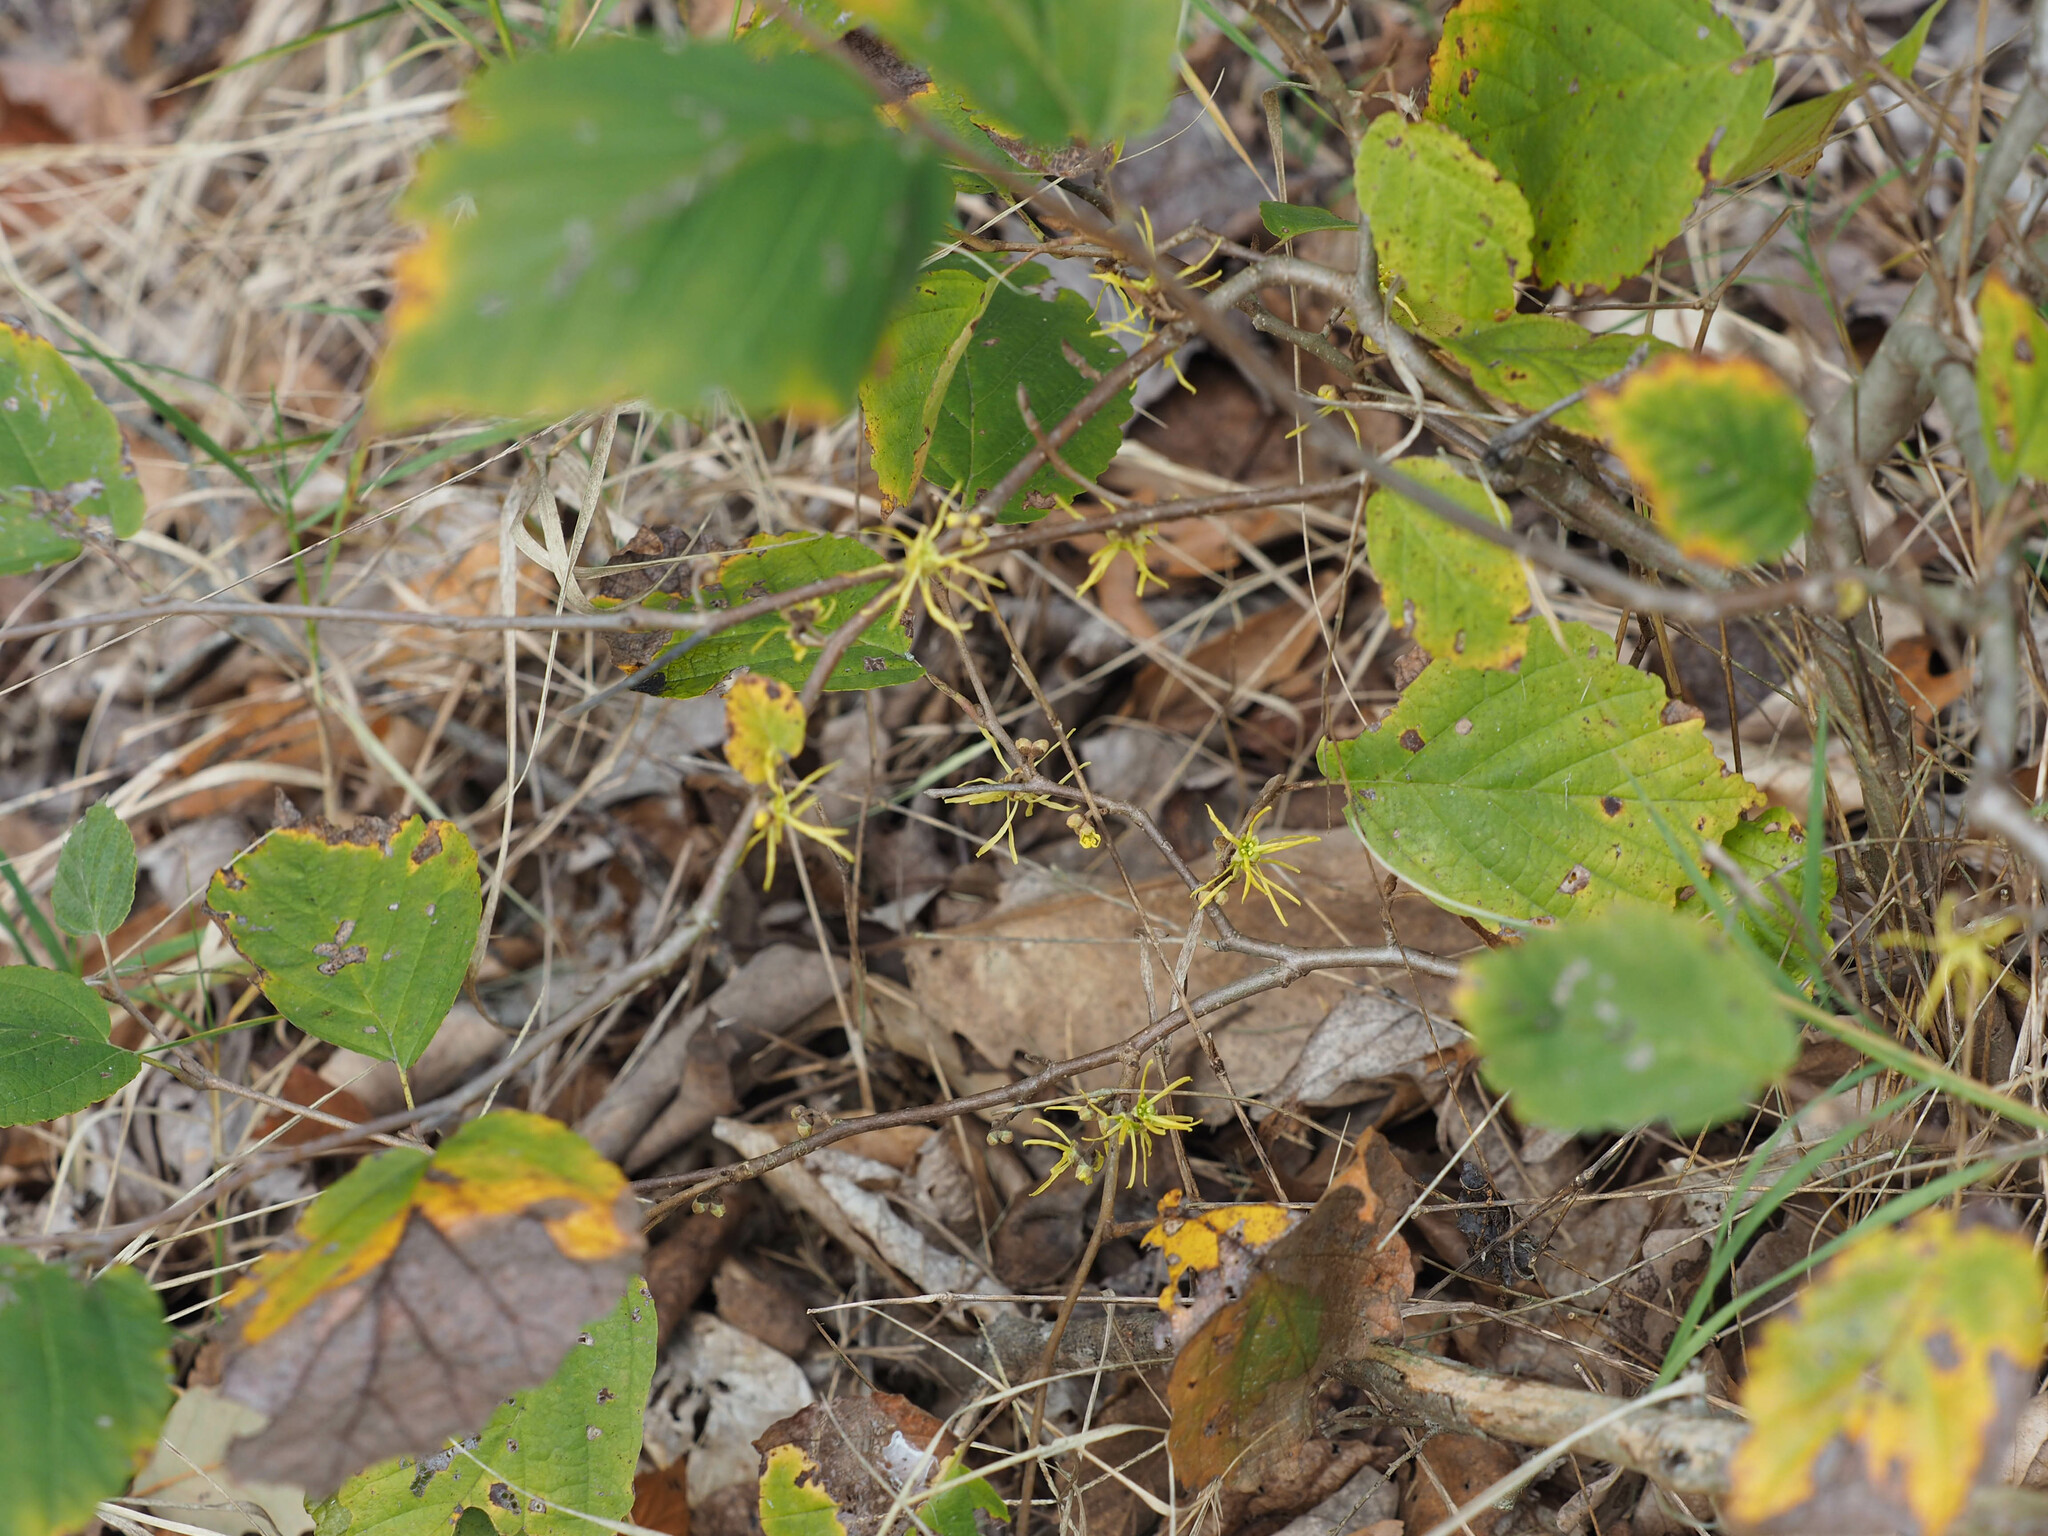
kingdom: Plantae
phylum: Tracheophyta
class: Magnoliopsida
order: Saxifragales
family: Hamamelidaceae
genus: Hamamelis
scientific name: Hamamelis virginiana
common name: Witch-hazel
